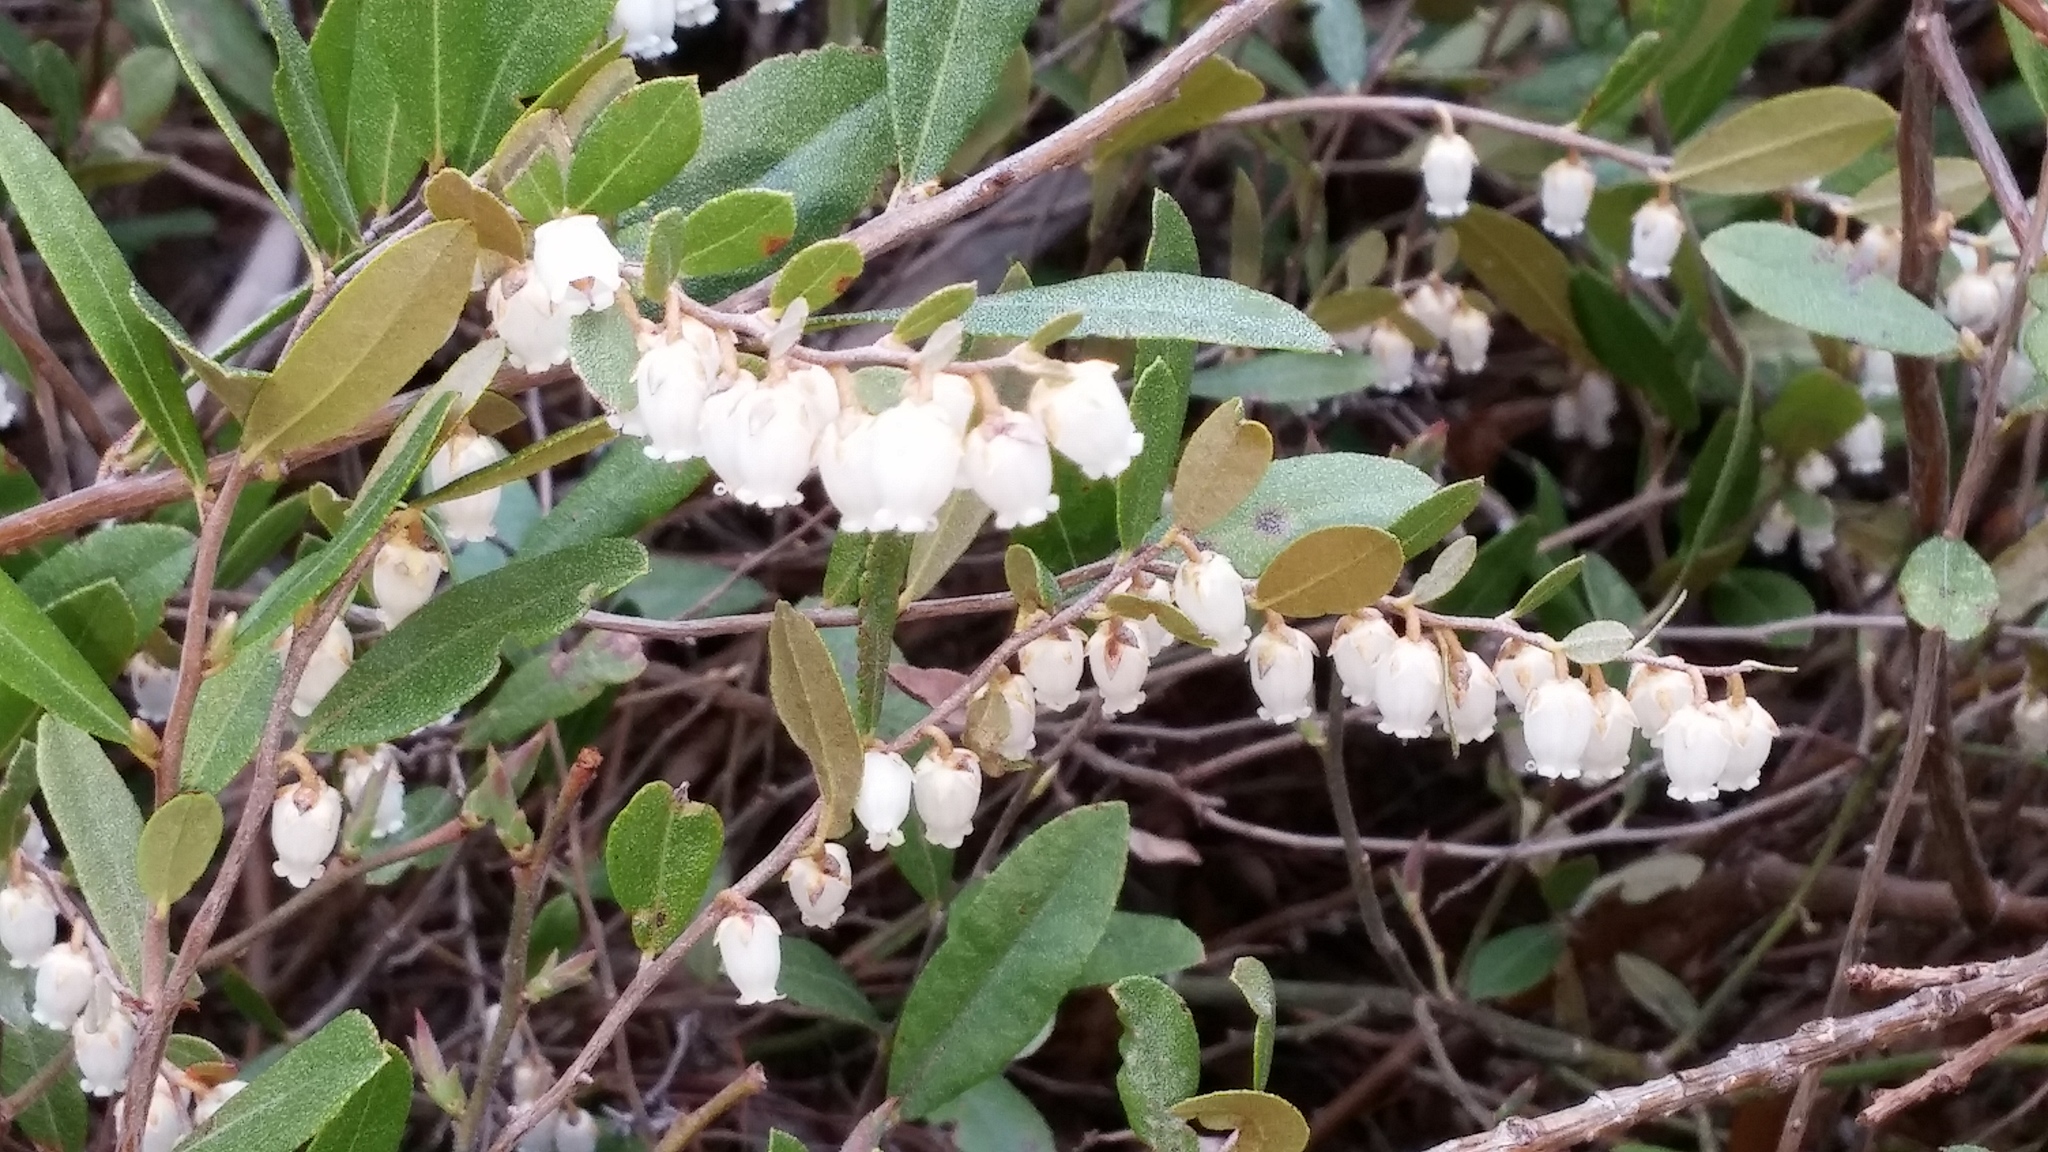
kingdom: Plantae
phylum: Tracheophyta
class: Magnoliopsida
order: Ericales
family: Ericaceae
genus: Chamaedaphne
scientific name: Chamaedaphne calyculata
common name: Leatherleaf
